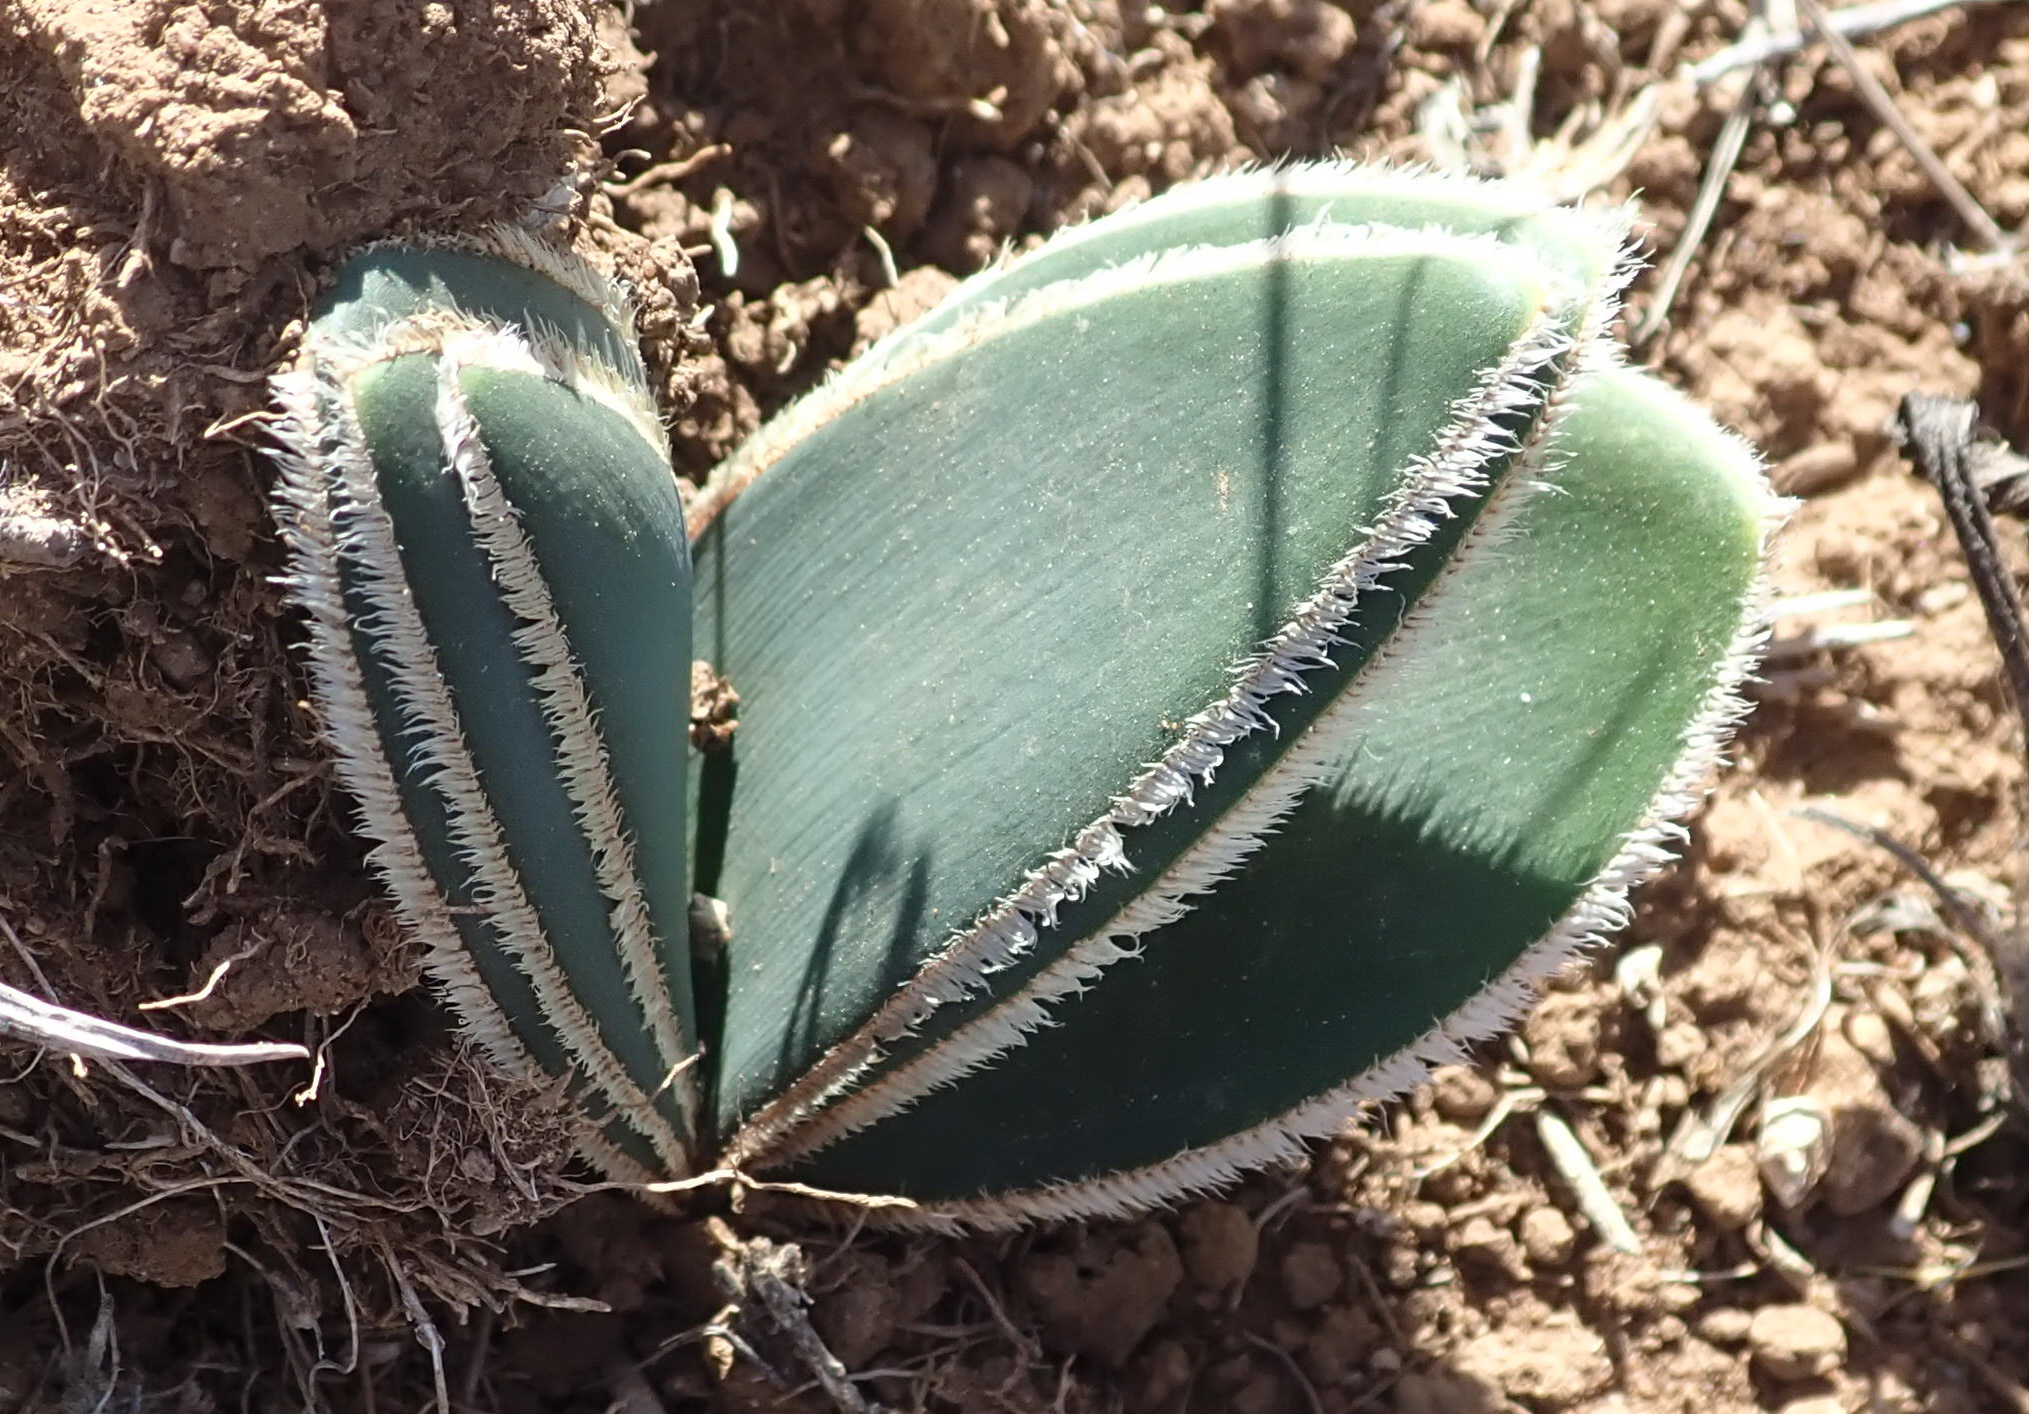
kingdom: Plantae
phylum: Tracheophyta
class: Liliopsida
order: Asparagales
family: Amaryllidaceae
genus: Crossyne
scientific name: Crossyne guttata
